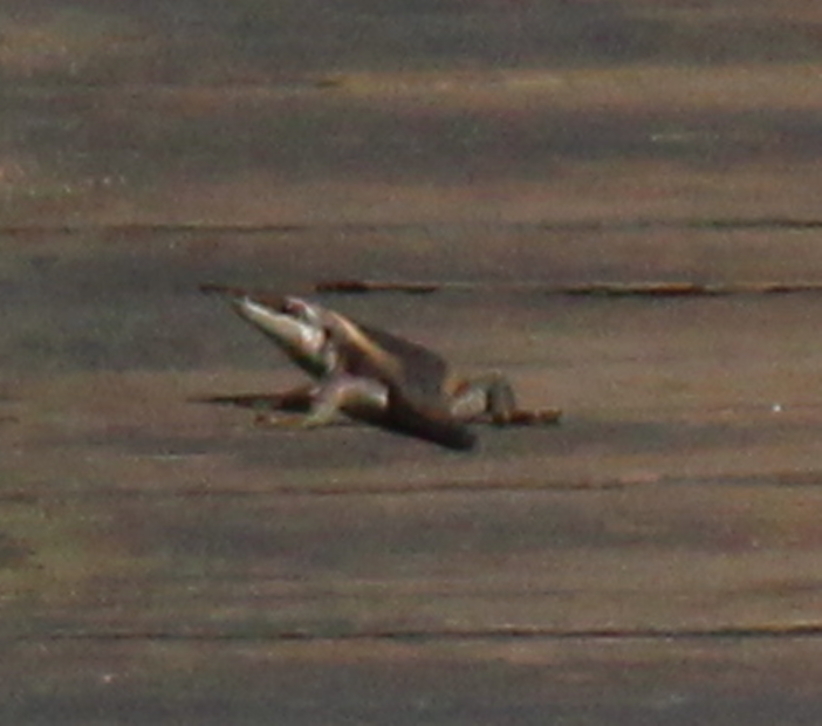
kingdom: Animalia
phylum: Chordata
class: Squamata
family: Scincidae
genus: Trachylepis
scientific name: Trachylepis striata
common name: African striped mabuya
